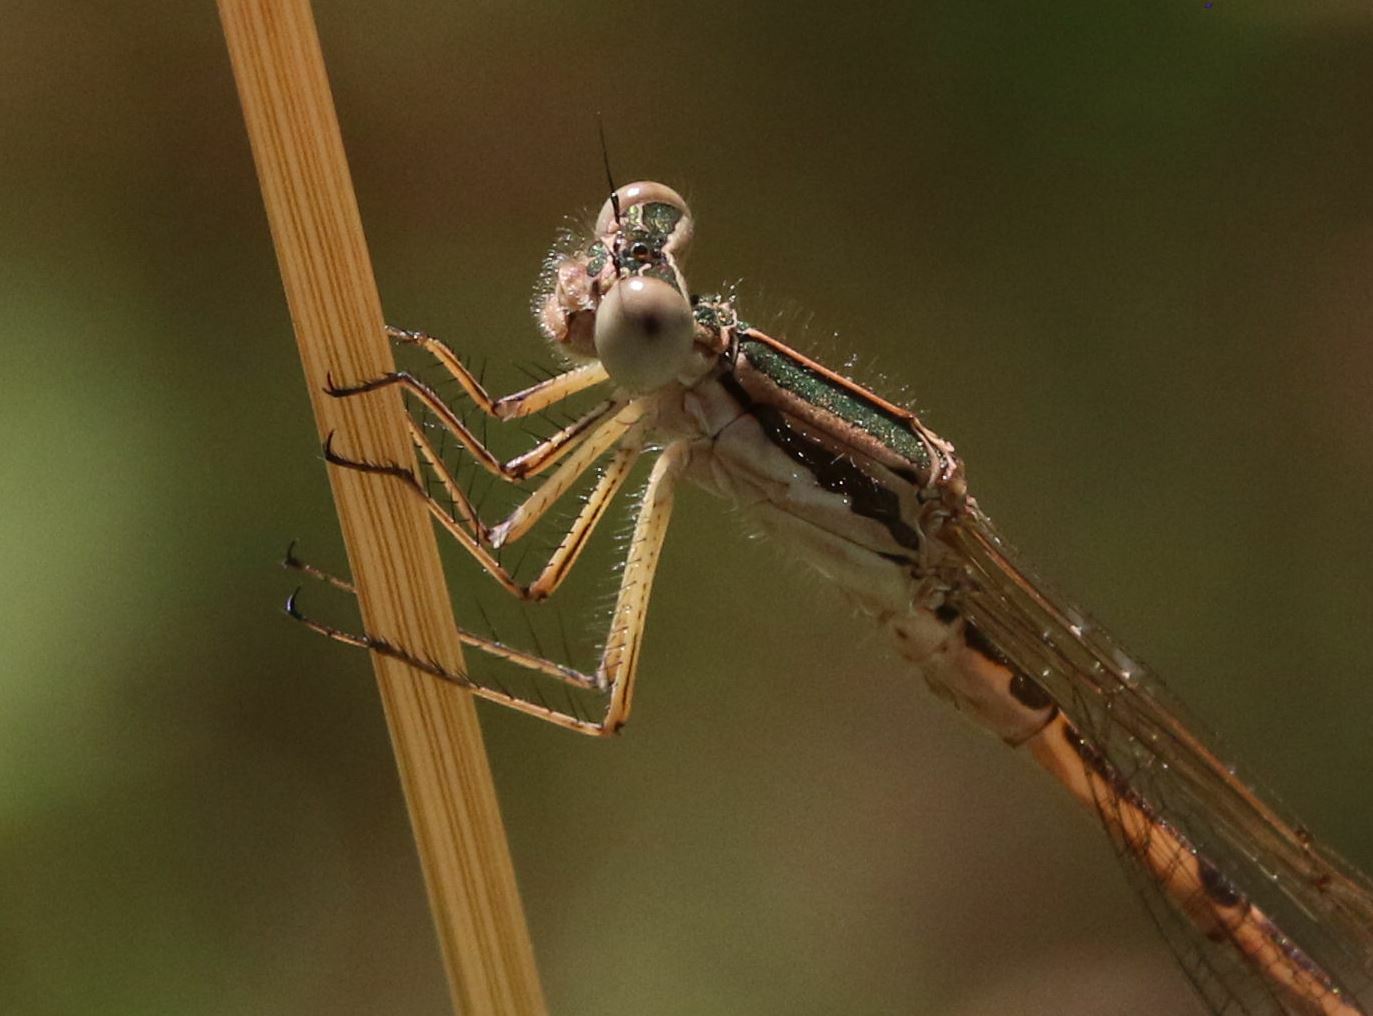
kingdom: Animalia
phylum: Arthropoda
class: Insecta
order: Odonata
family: Lestidae
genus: Sympecma
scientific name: Sympecma fusca
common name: Common winter damsel
